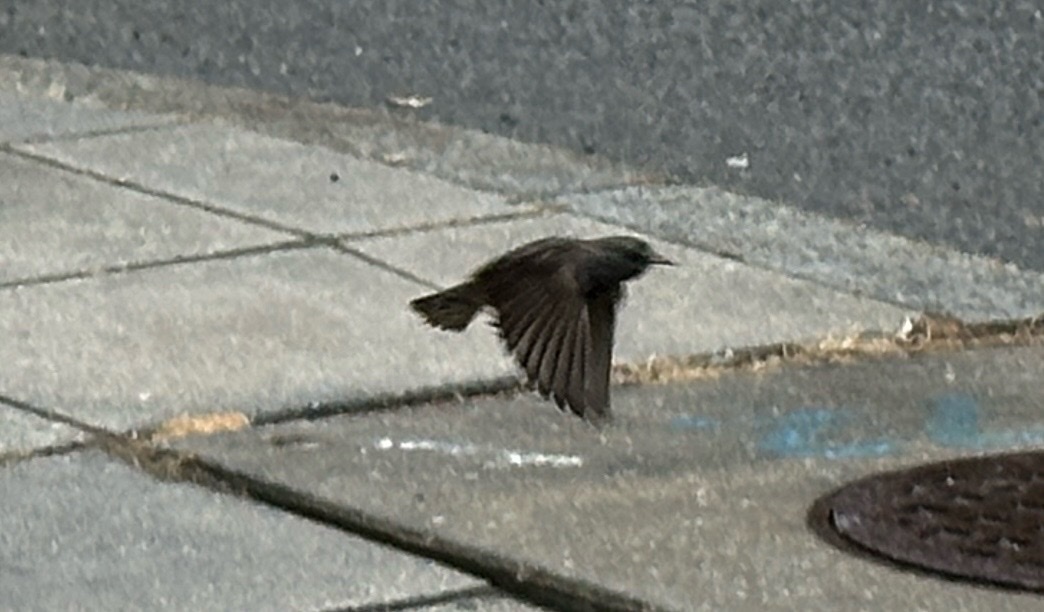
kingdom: Animalia
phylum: Chordata
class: Aves
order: Passeriformes
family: Sturnidae
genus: Sturnus
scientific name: Sturnus vulgaris
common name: Common starling
